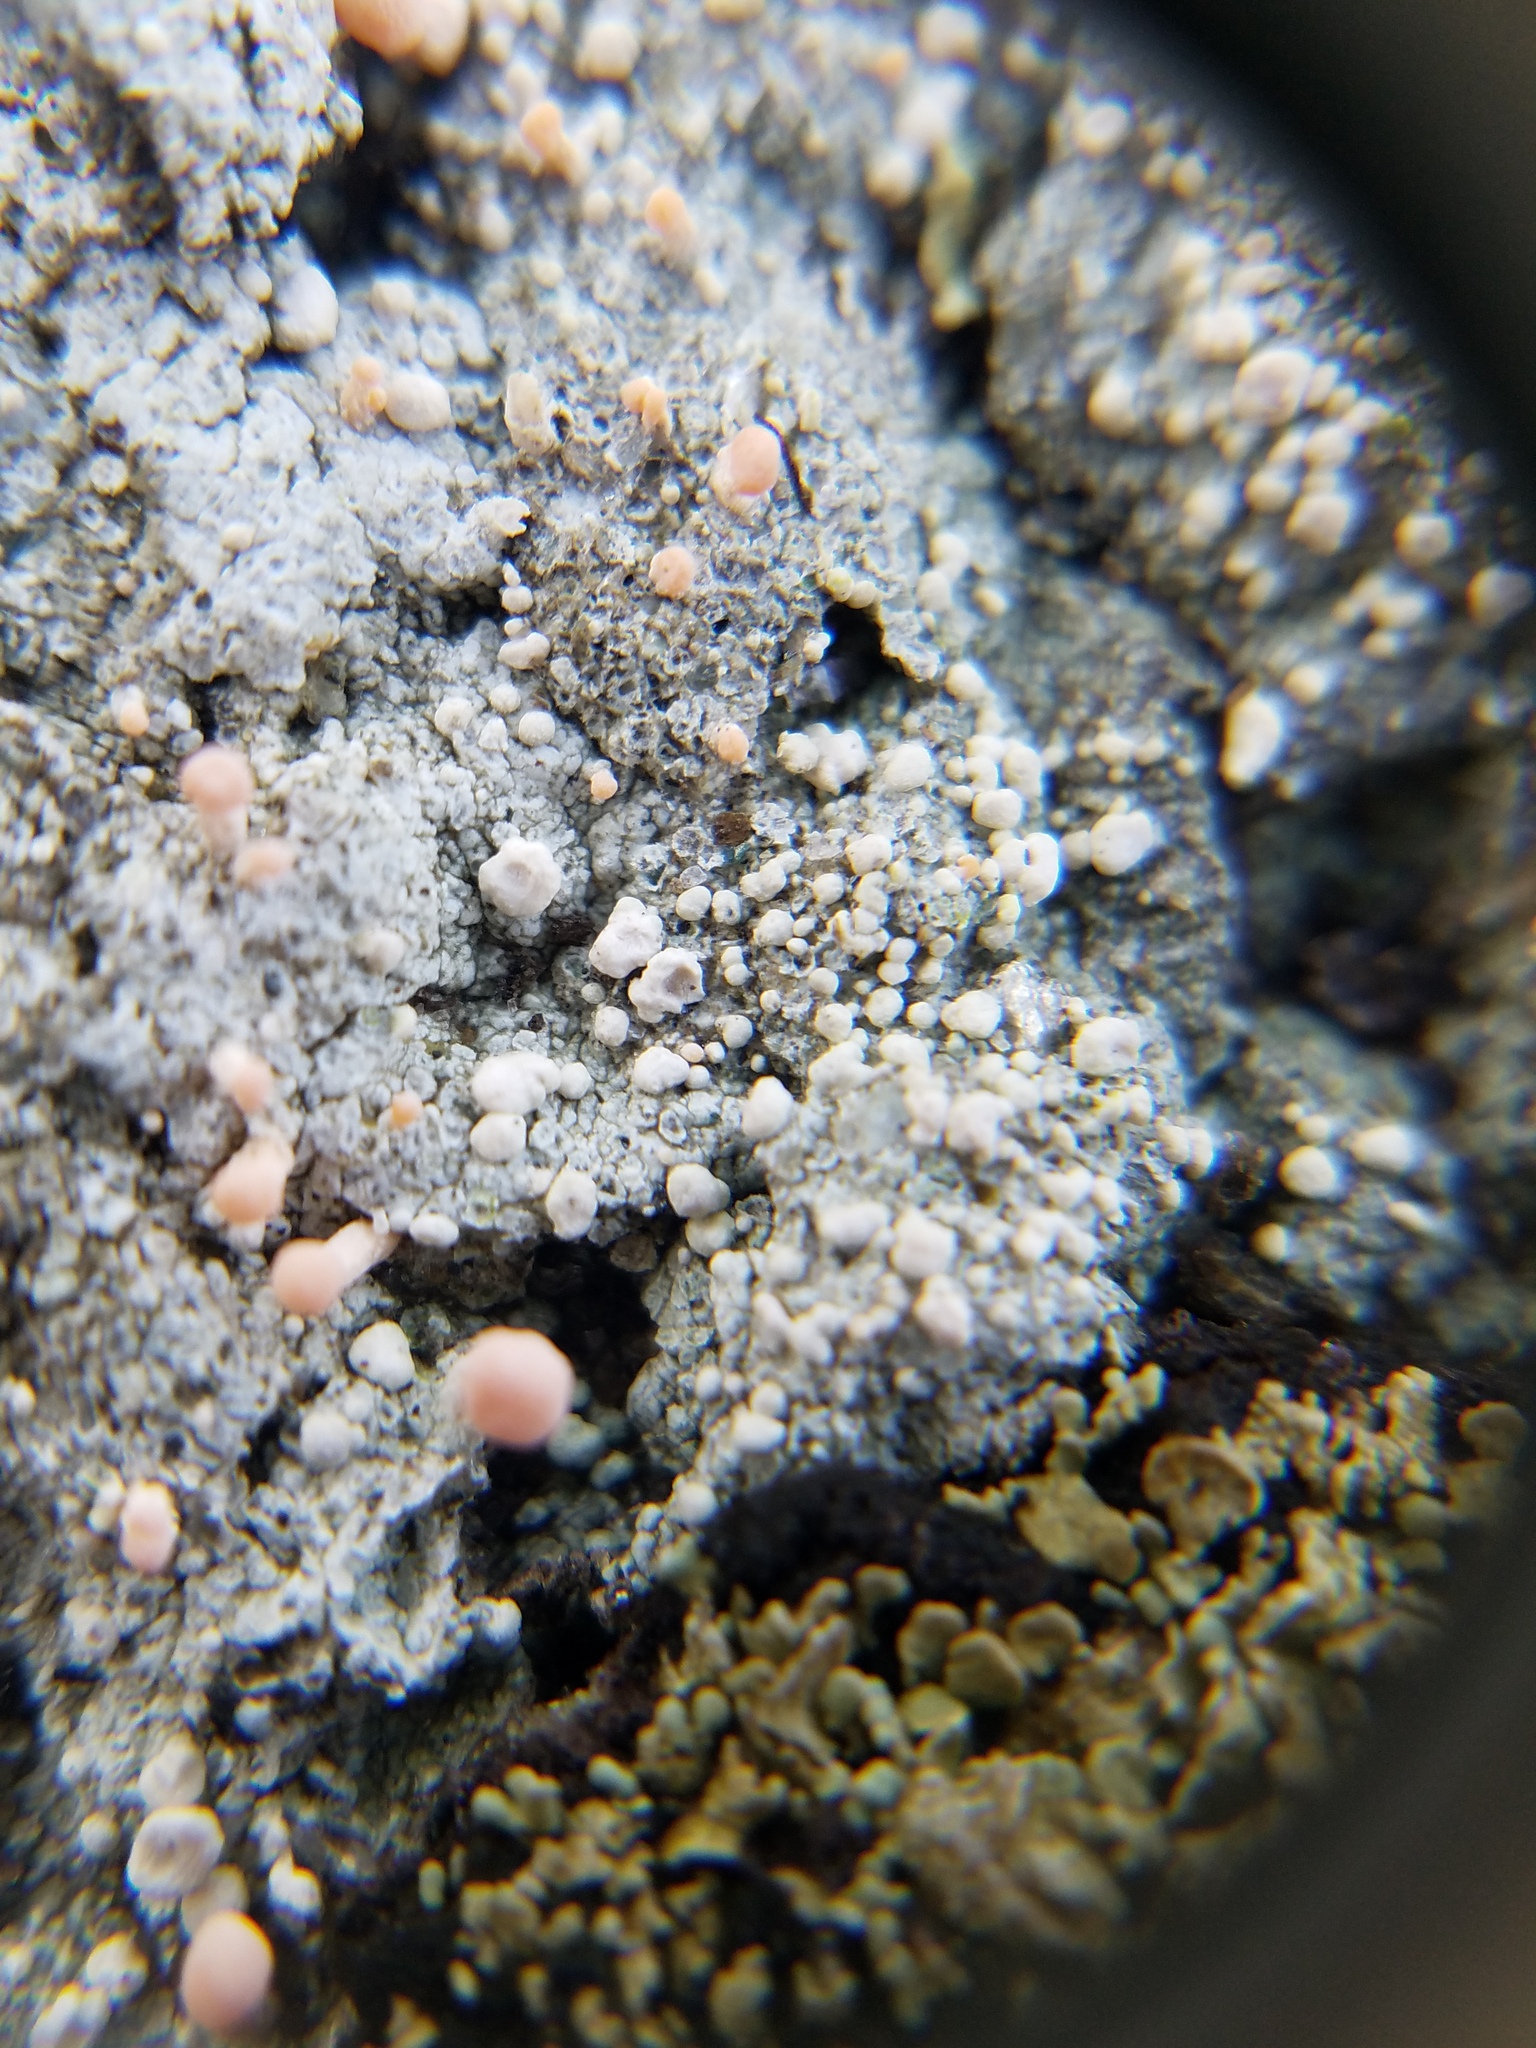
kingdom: Fungi
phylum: Ascomycota
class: Lecanoromycetes
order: Pertusariales
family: Icmadophilaceae
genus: Dibaeis
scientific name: Dibaeis baeomyces
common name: Pink earth lichen
